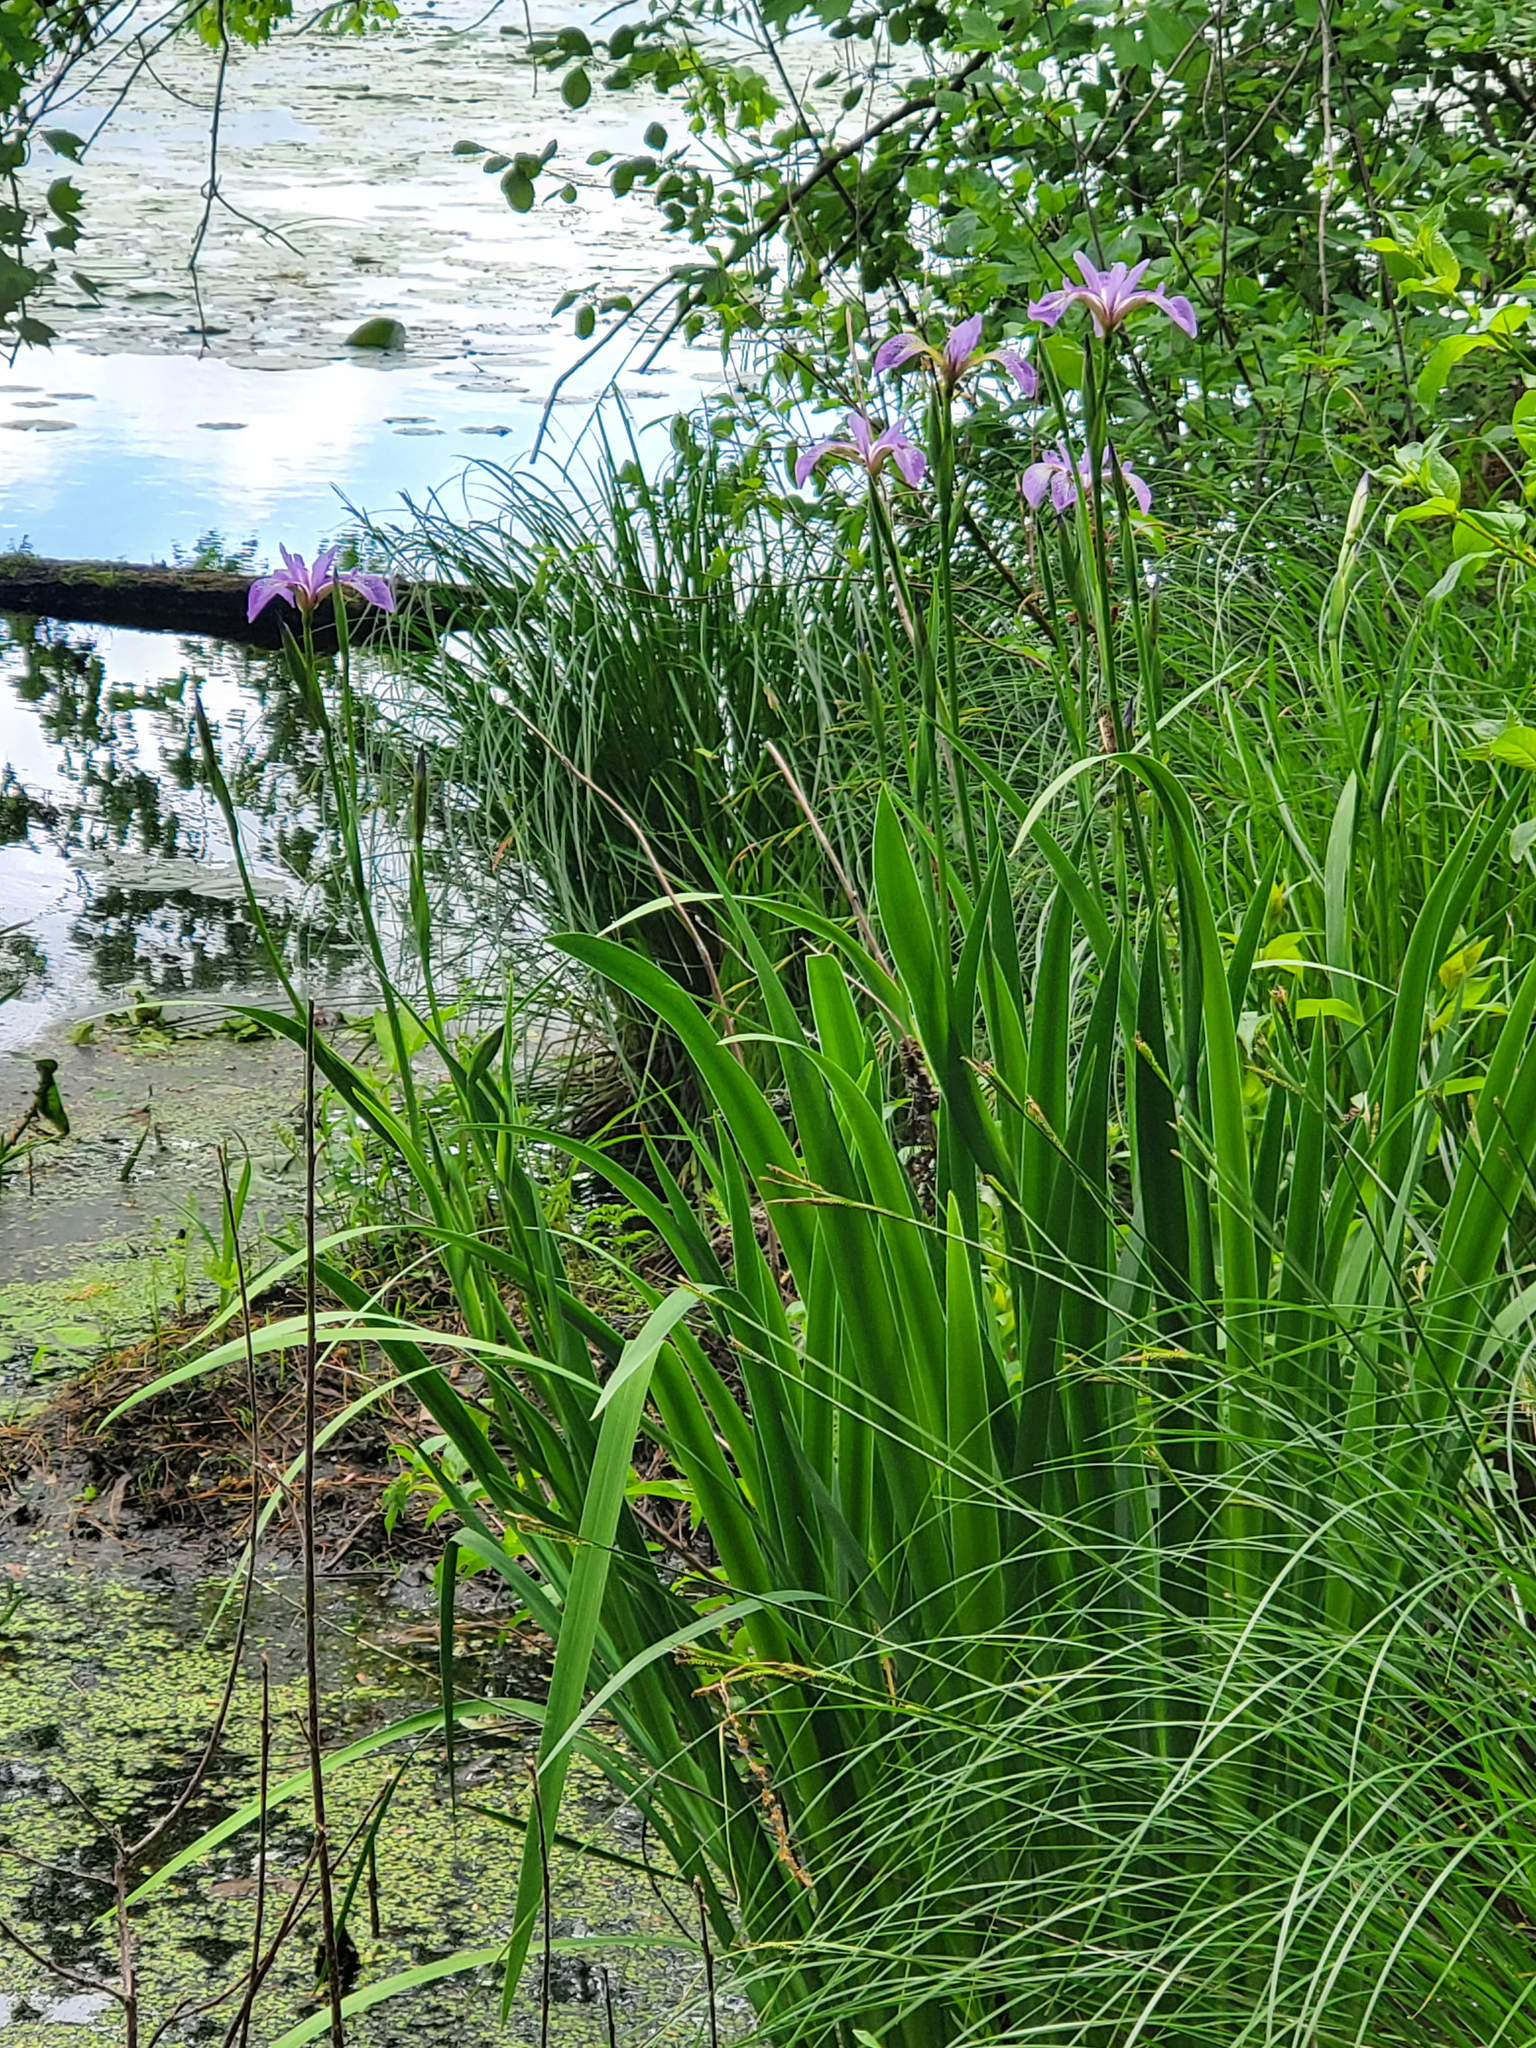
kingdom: Plantae
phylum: Tracheophyta
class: Liliopsida
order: Asparagales
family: Iridaceae
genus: Iris
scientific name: Iris versicolor
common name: Purple iris
